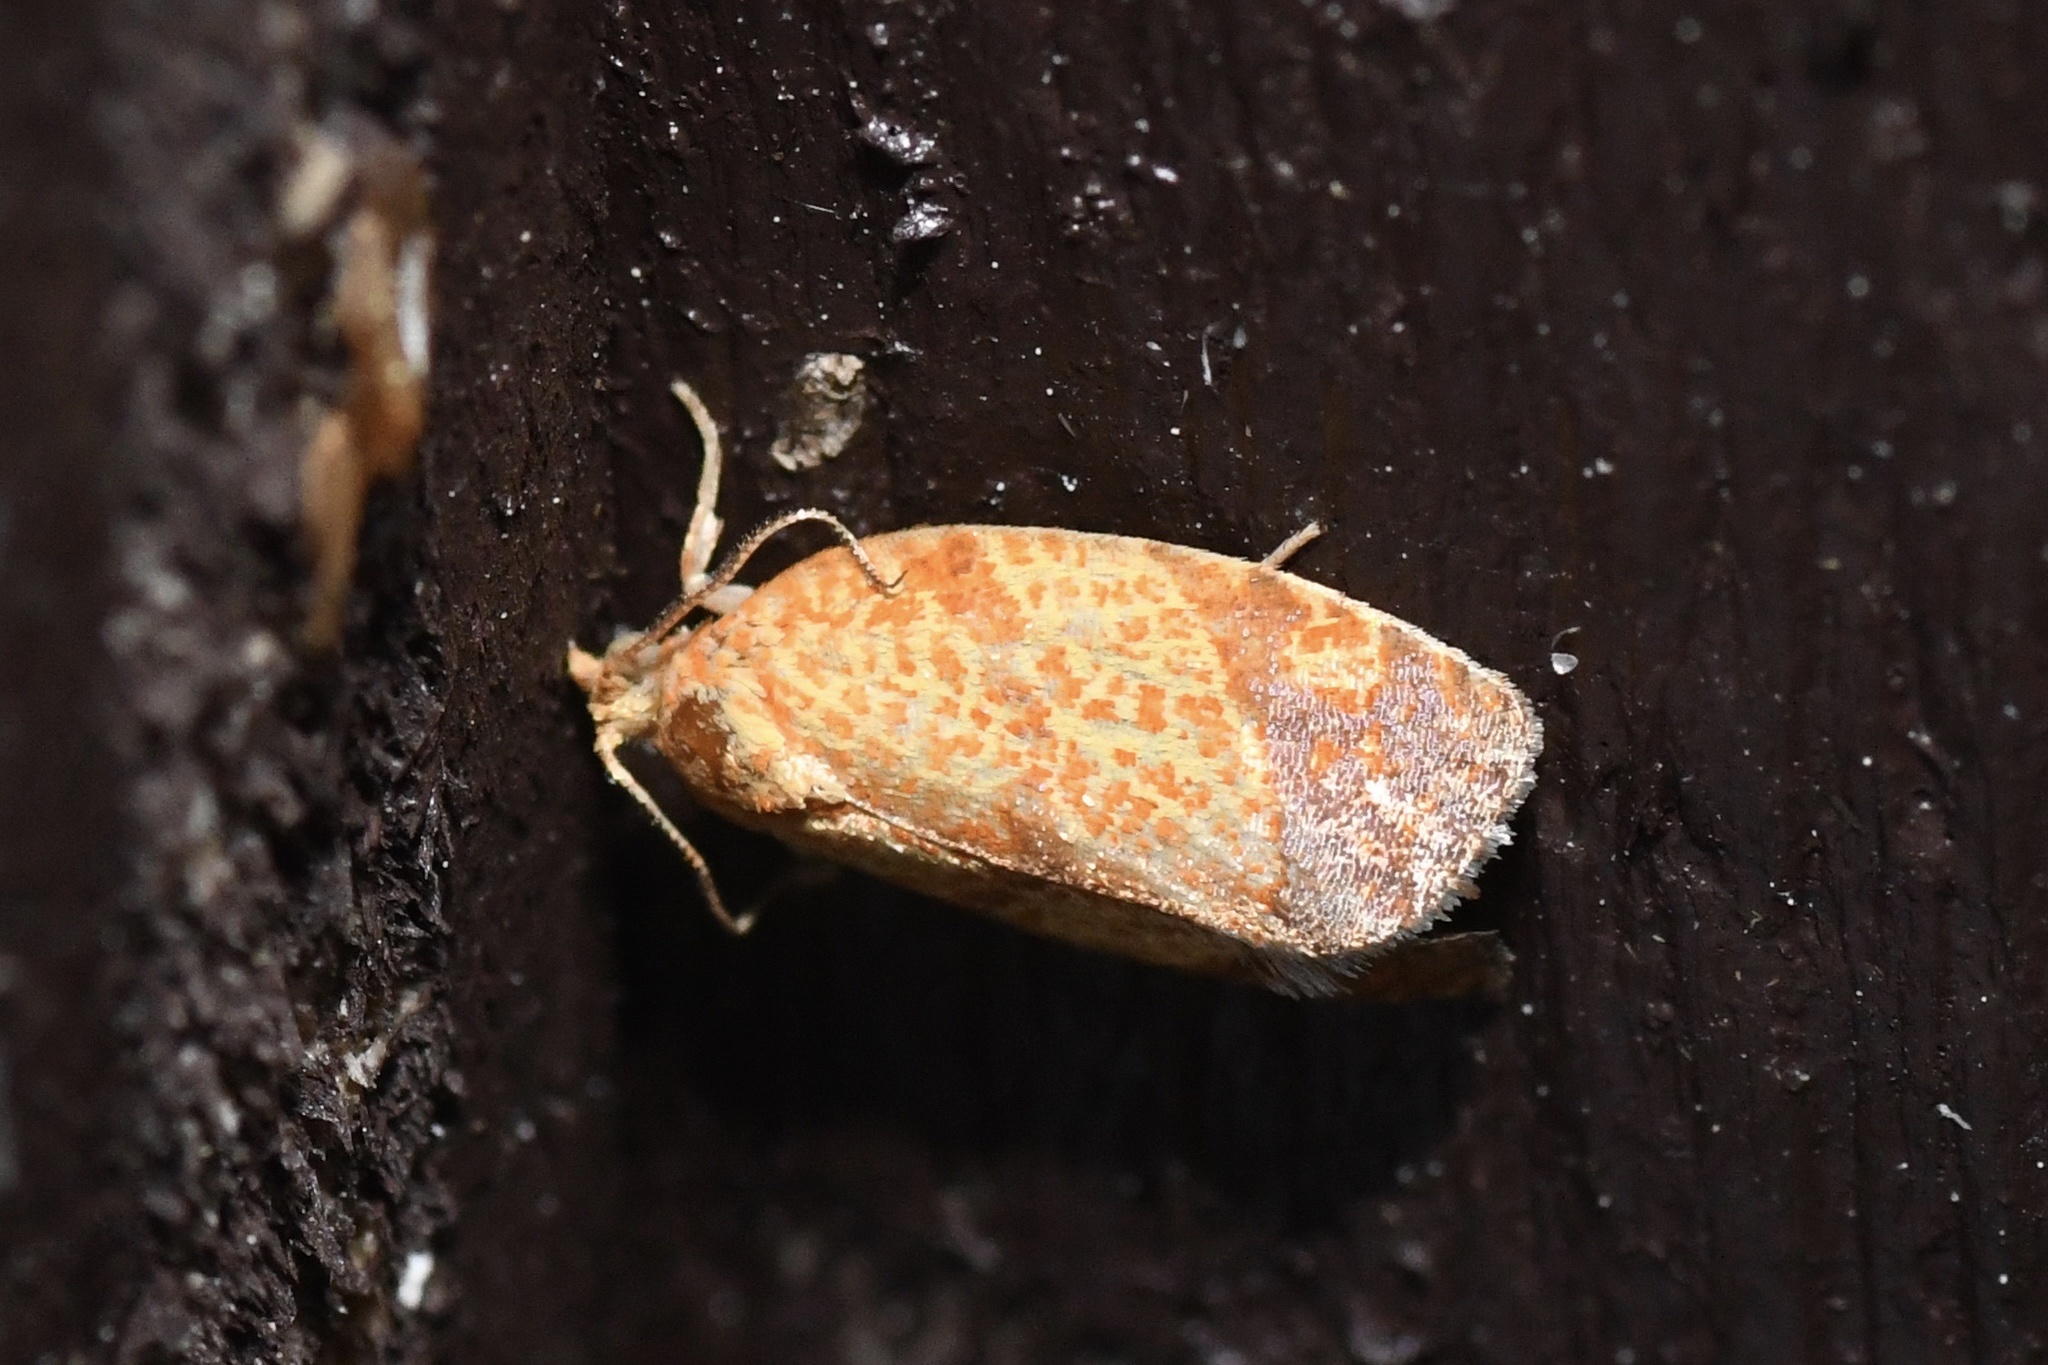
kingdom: Animalia
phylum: Arthropoda
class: Insecta
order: Lepidoptera
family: Tortricidae
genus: Argyrotaenia
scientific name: Argyrotaenia quadrifasciana
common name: Four-lined leafroller moth
